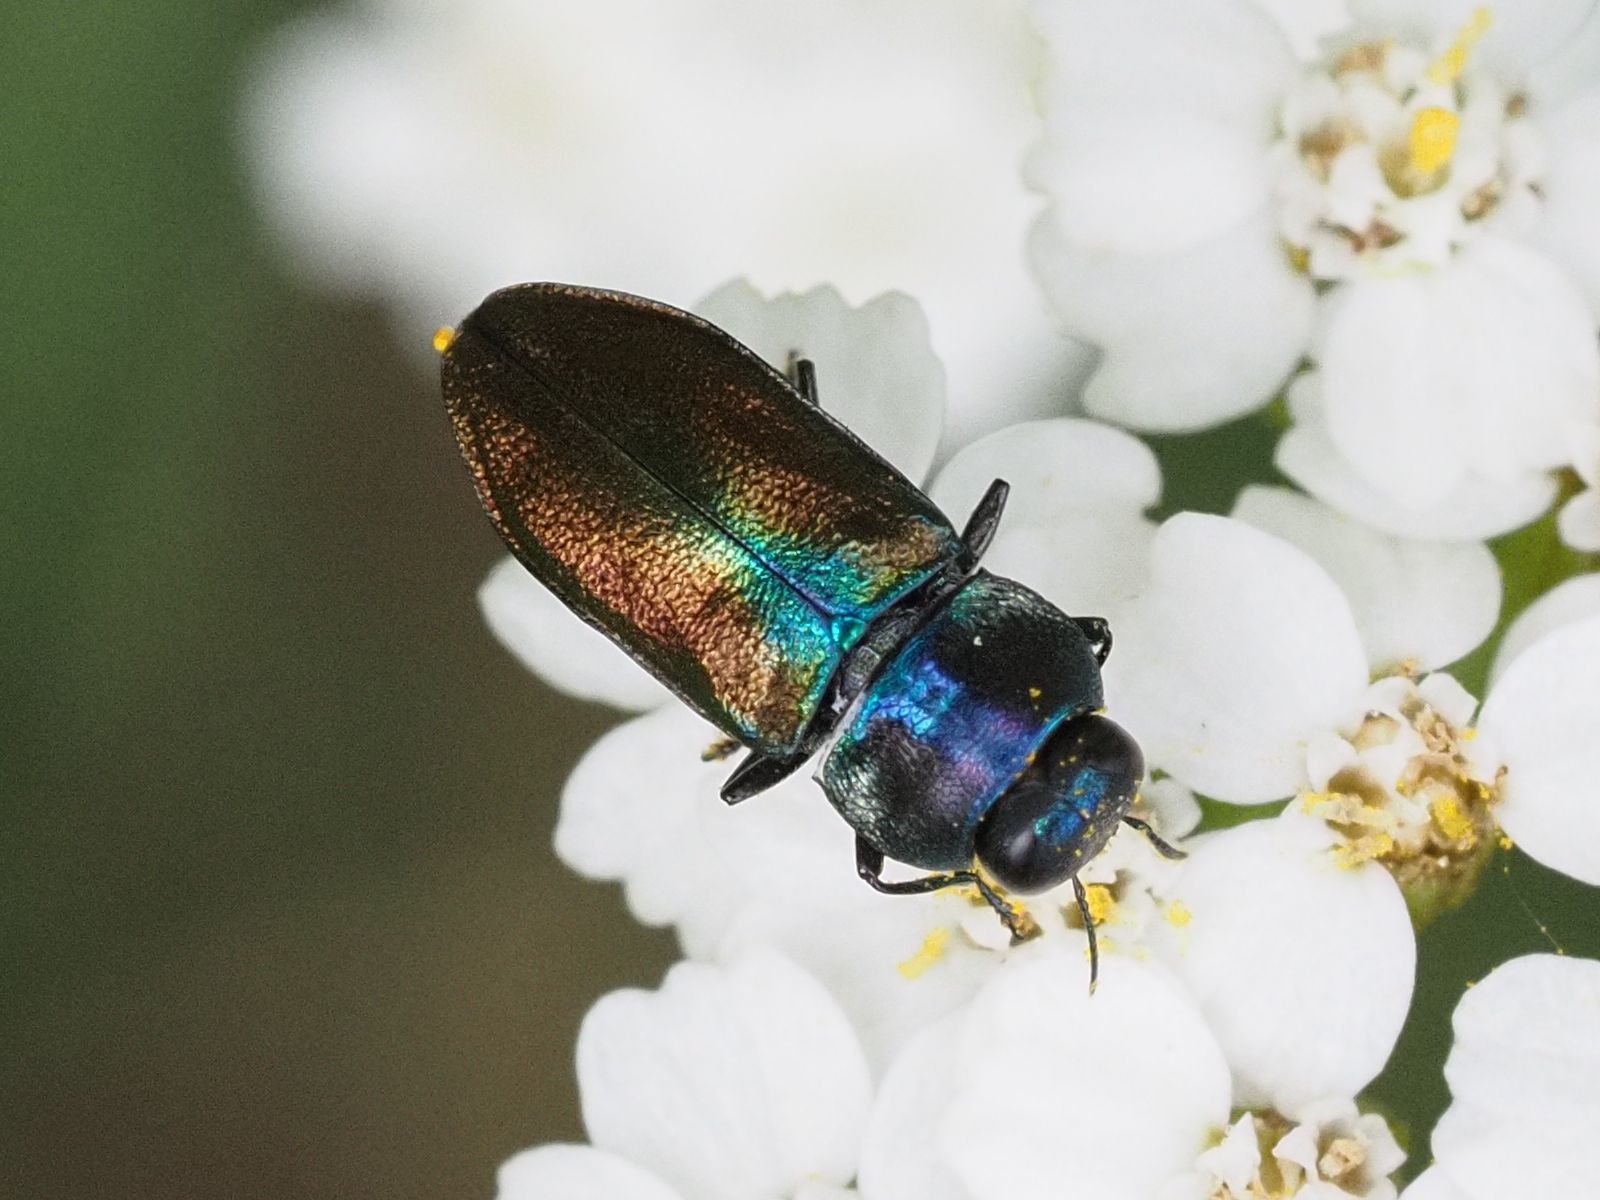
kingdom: Animalia
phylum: Arthropoda
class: Insecta
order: Coleoptera
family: Buprestidae
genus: Anthaxia
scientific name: Anthaxia podolica
